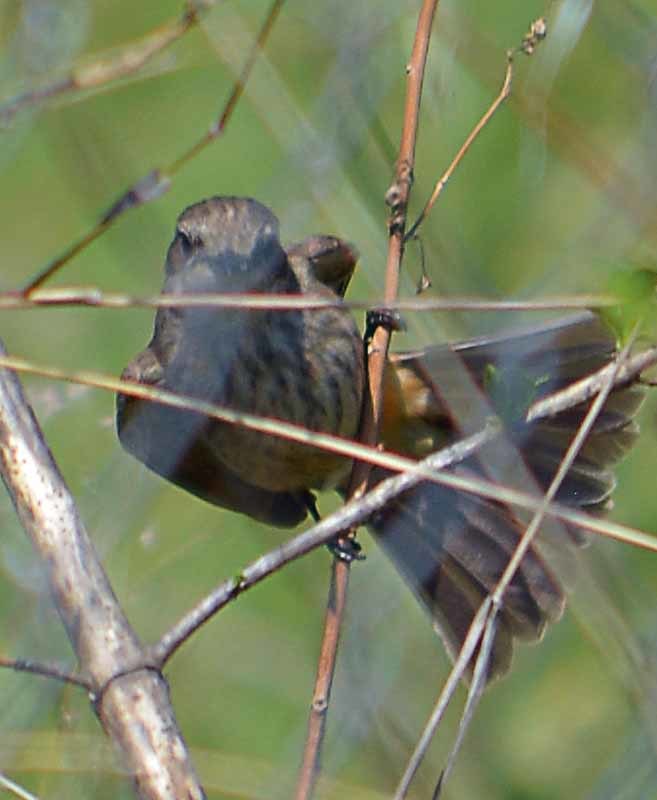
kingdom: Animalia
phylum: Chordata
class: Aves
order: Passeriformes
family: Tyrannidae
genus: Pyrocephalus
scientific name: Pyrocephalus rubinus
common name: Vermilion flycatcher
